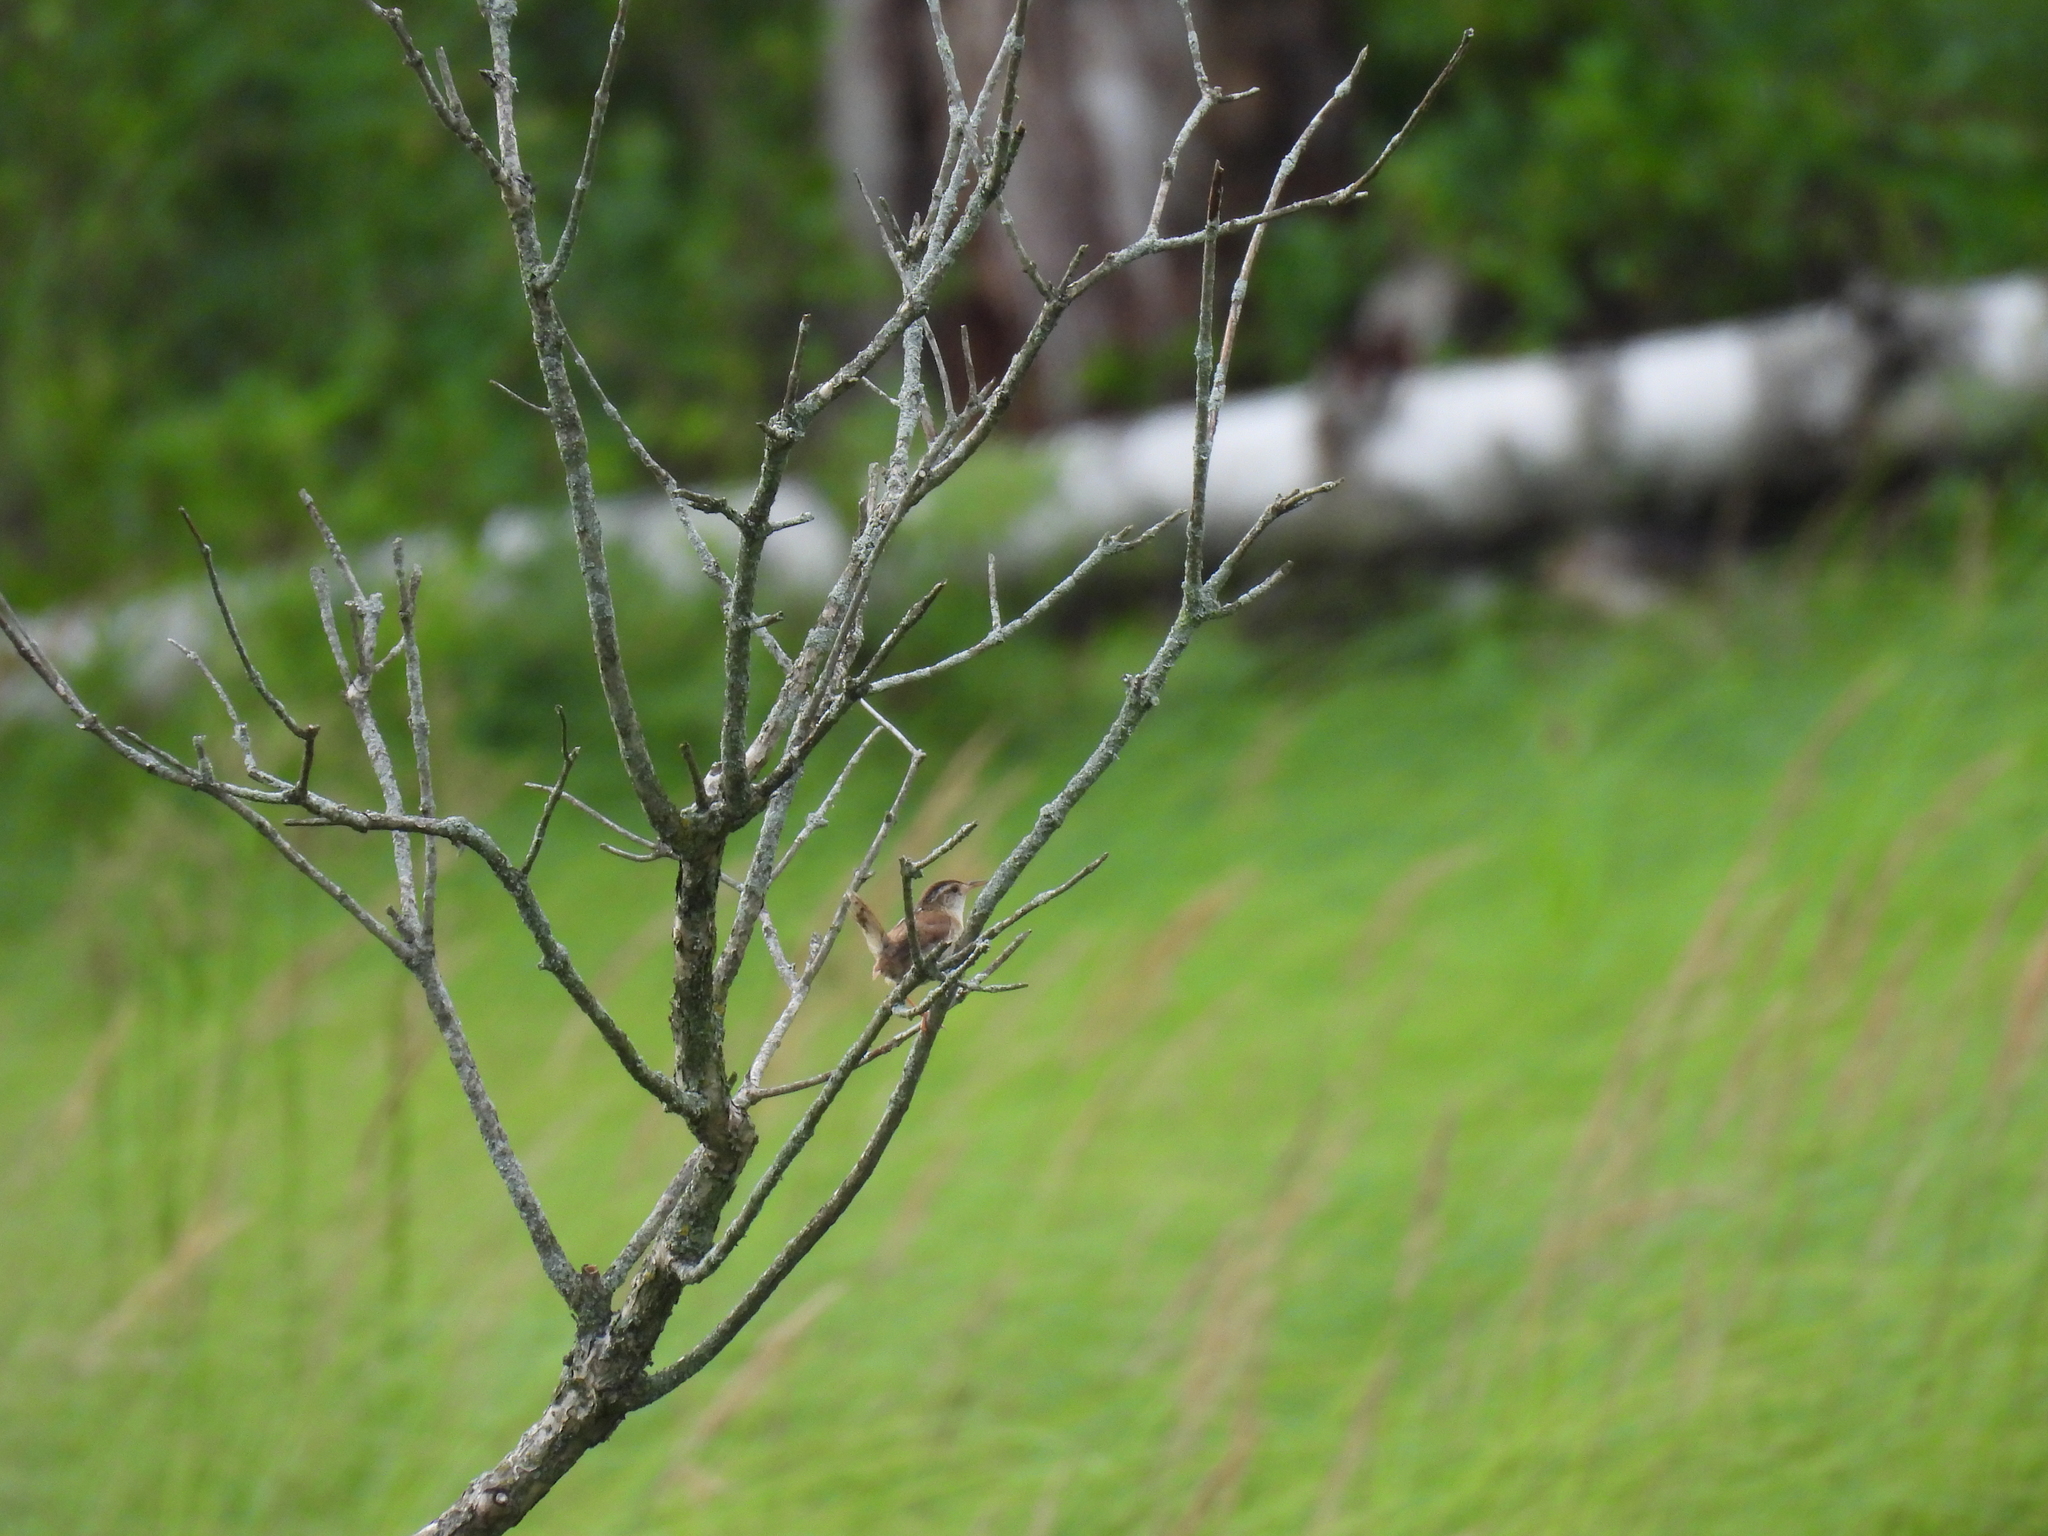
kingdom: Animalia
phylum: Chordata
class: Aves
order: Passeriformes
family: Troglodytidae
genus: Cistothorus
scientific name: Cistothorus palustris
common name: Marsh wren
